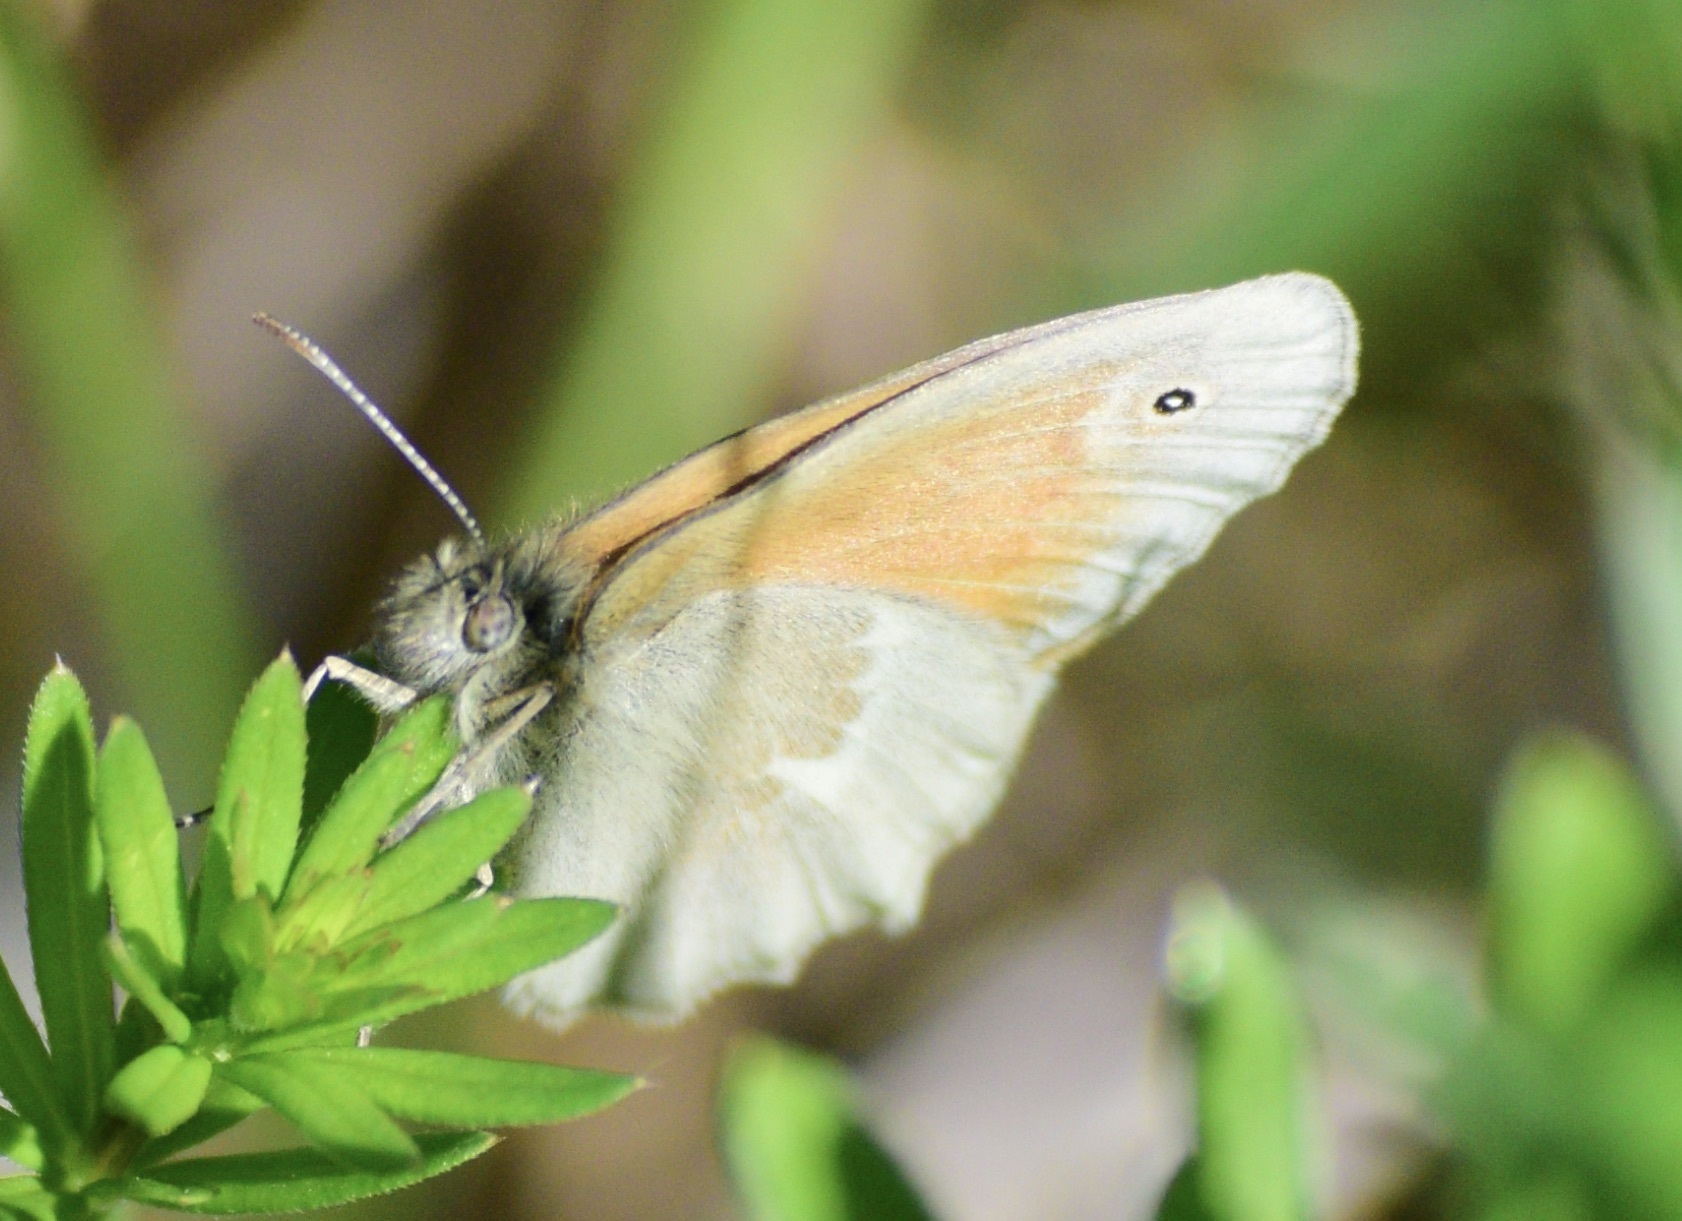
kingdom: Animalia
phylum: Arthropoda
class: Insecta
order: Lepidoptera
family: Nymphalidae
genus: Coenonympha
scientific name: Coenonympha california
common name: Common ringlet
